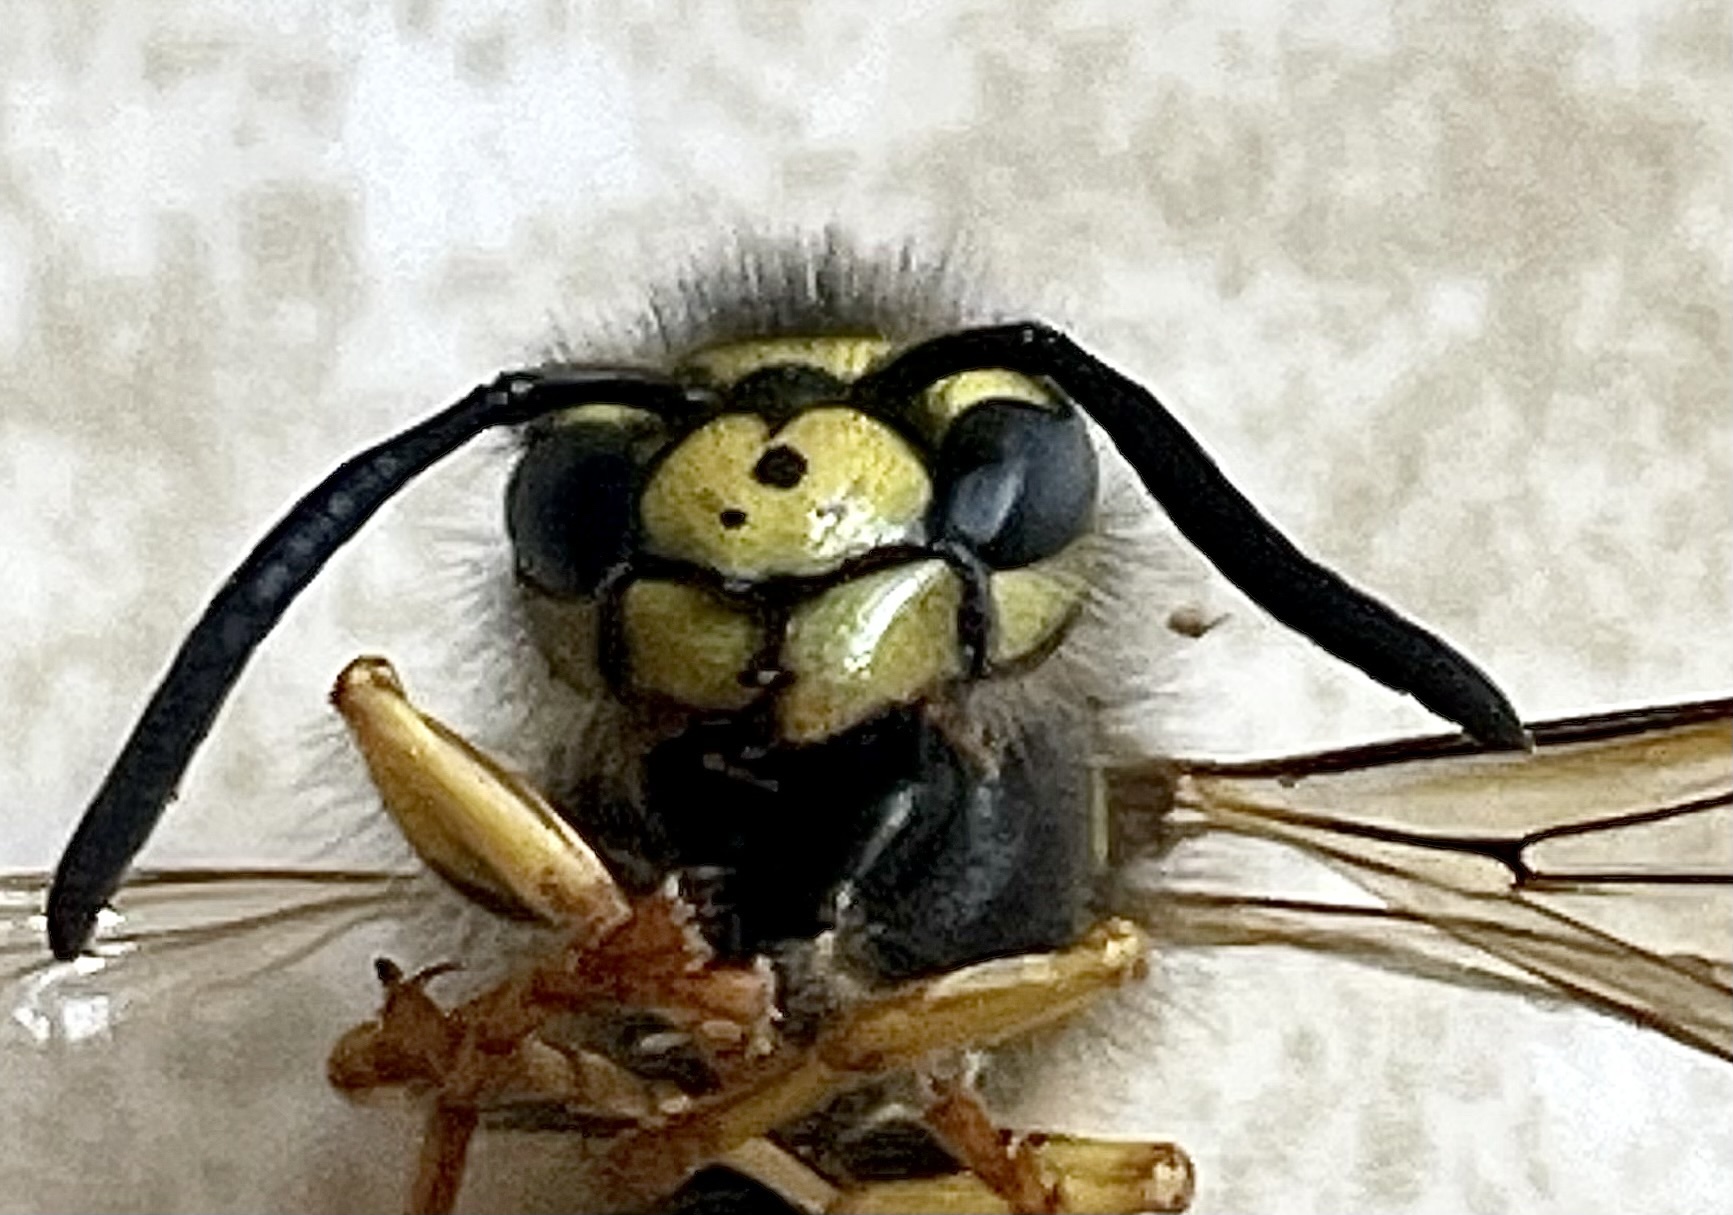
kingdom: Animalia
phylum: Arthropoda
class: Insecta
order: Hymenoptera
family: Vespidae
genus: Vespula
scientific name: Vespula germanica
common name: German wasp
